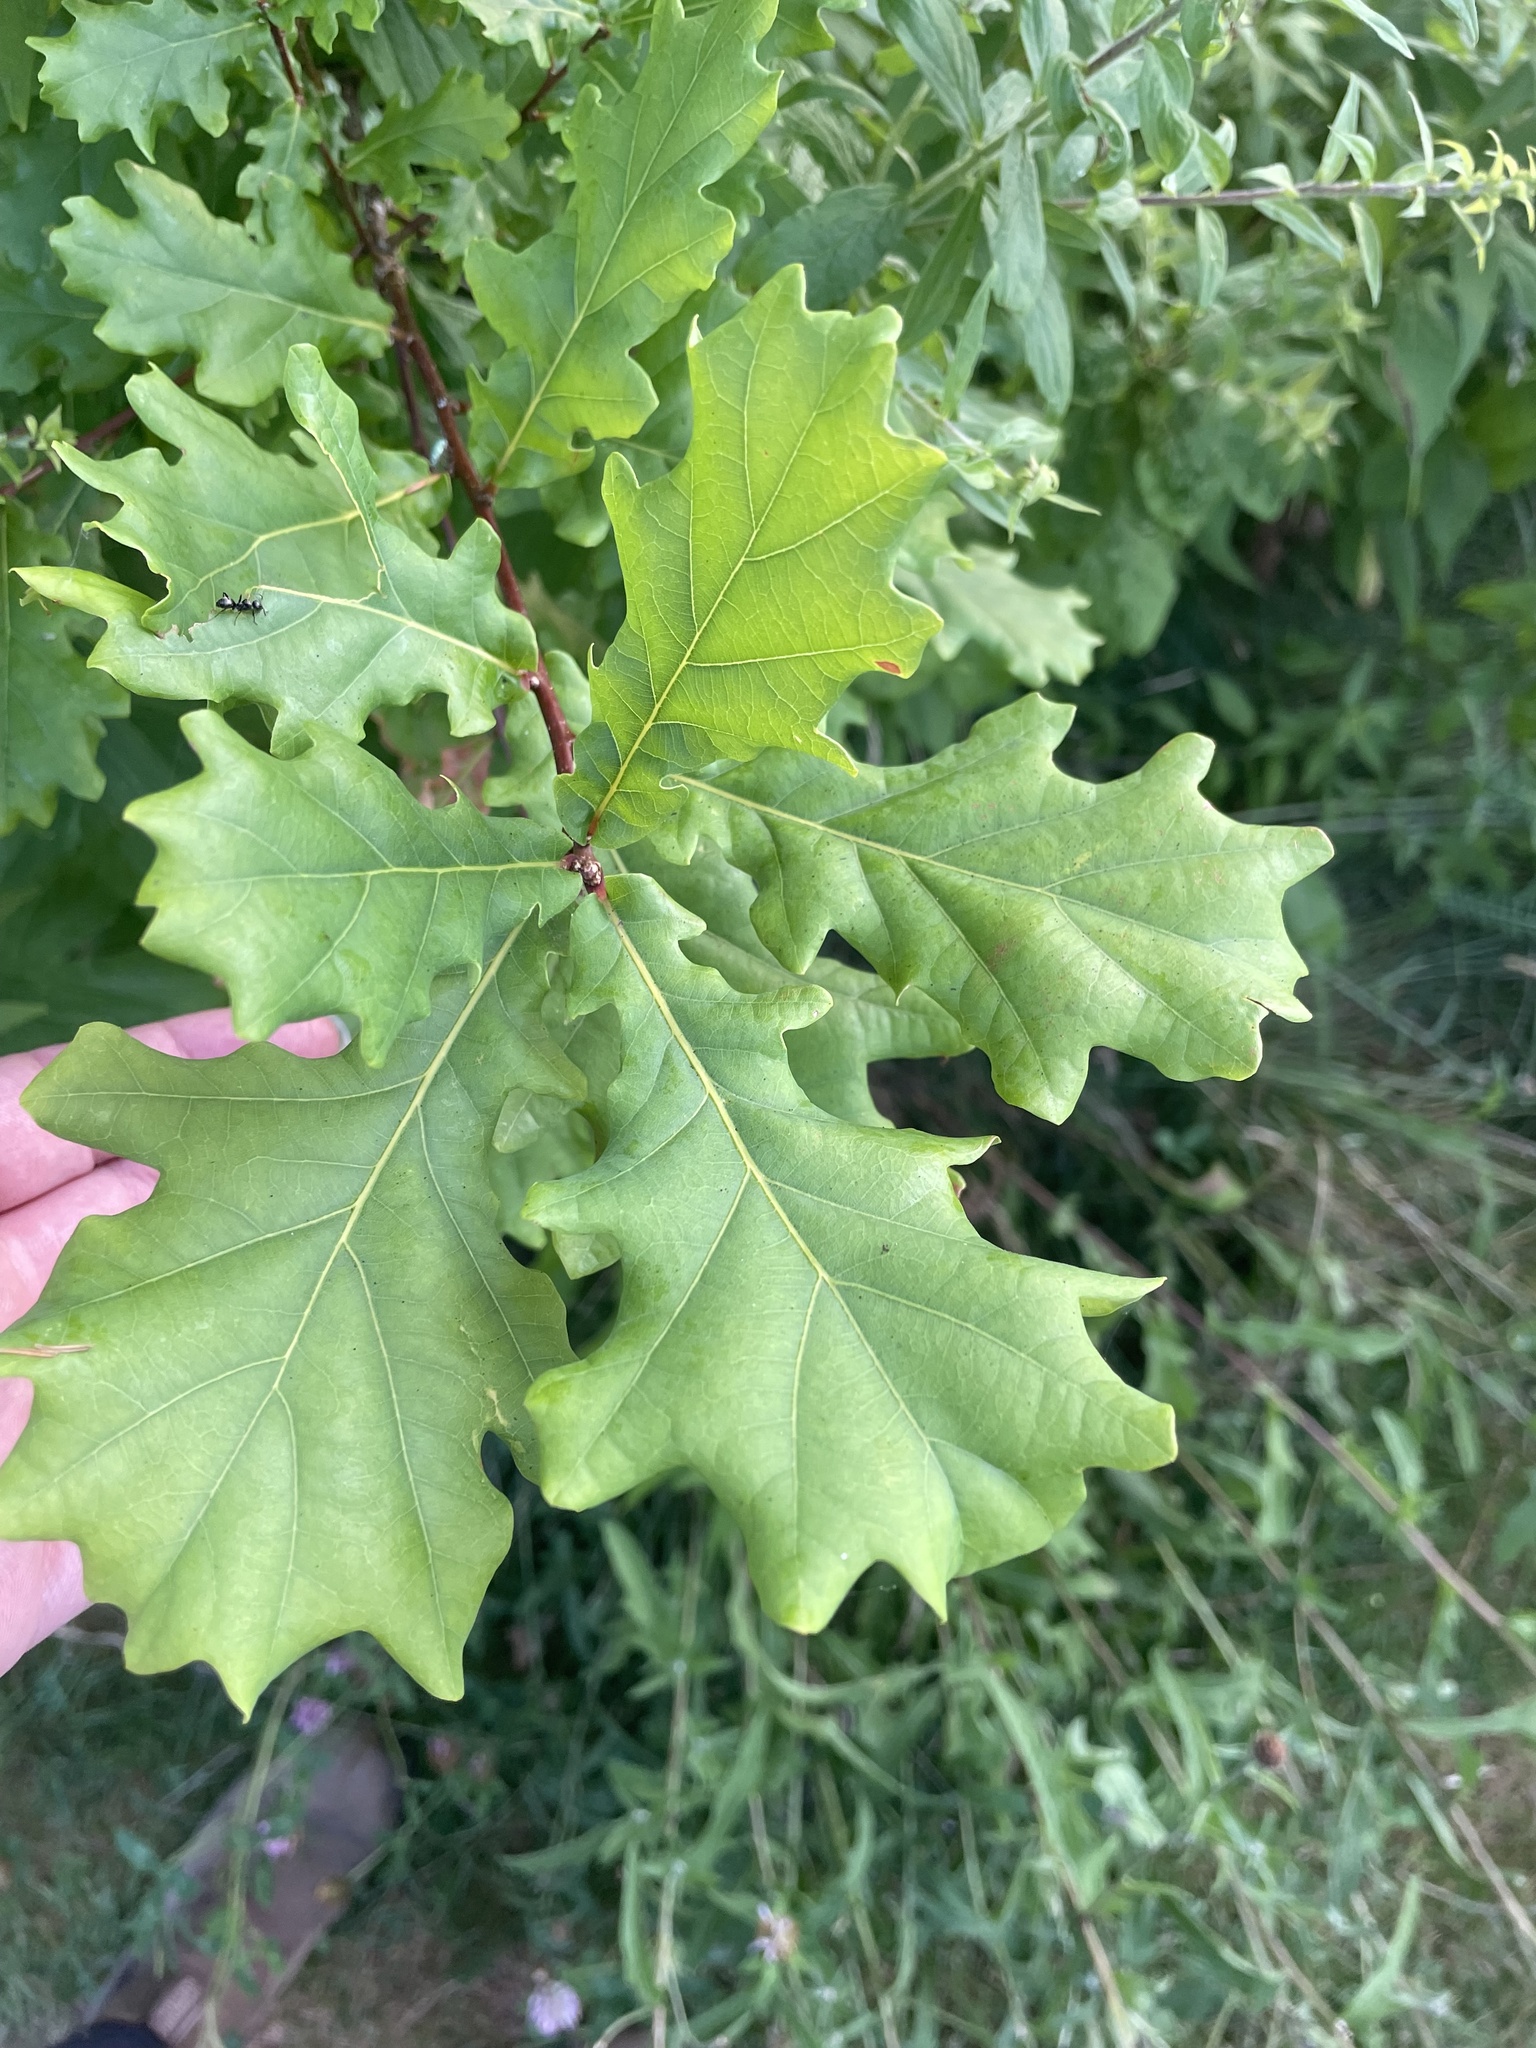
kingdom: Plantae
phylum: Tracheophyta
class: Magnoliopsida
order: Fagales
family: Fagaceae
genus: Quercus
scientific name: Quercus robur
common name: Pedunculate oak
